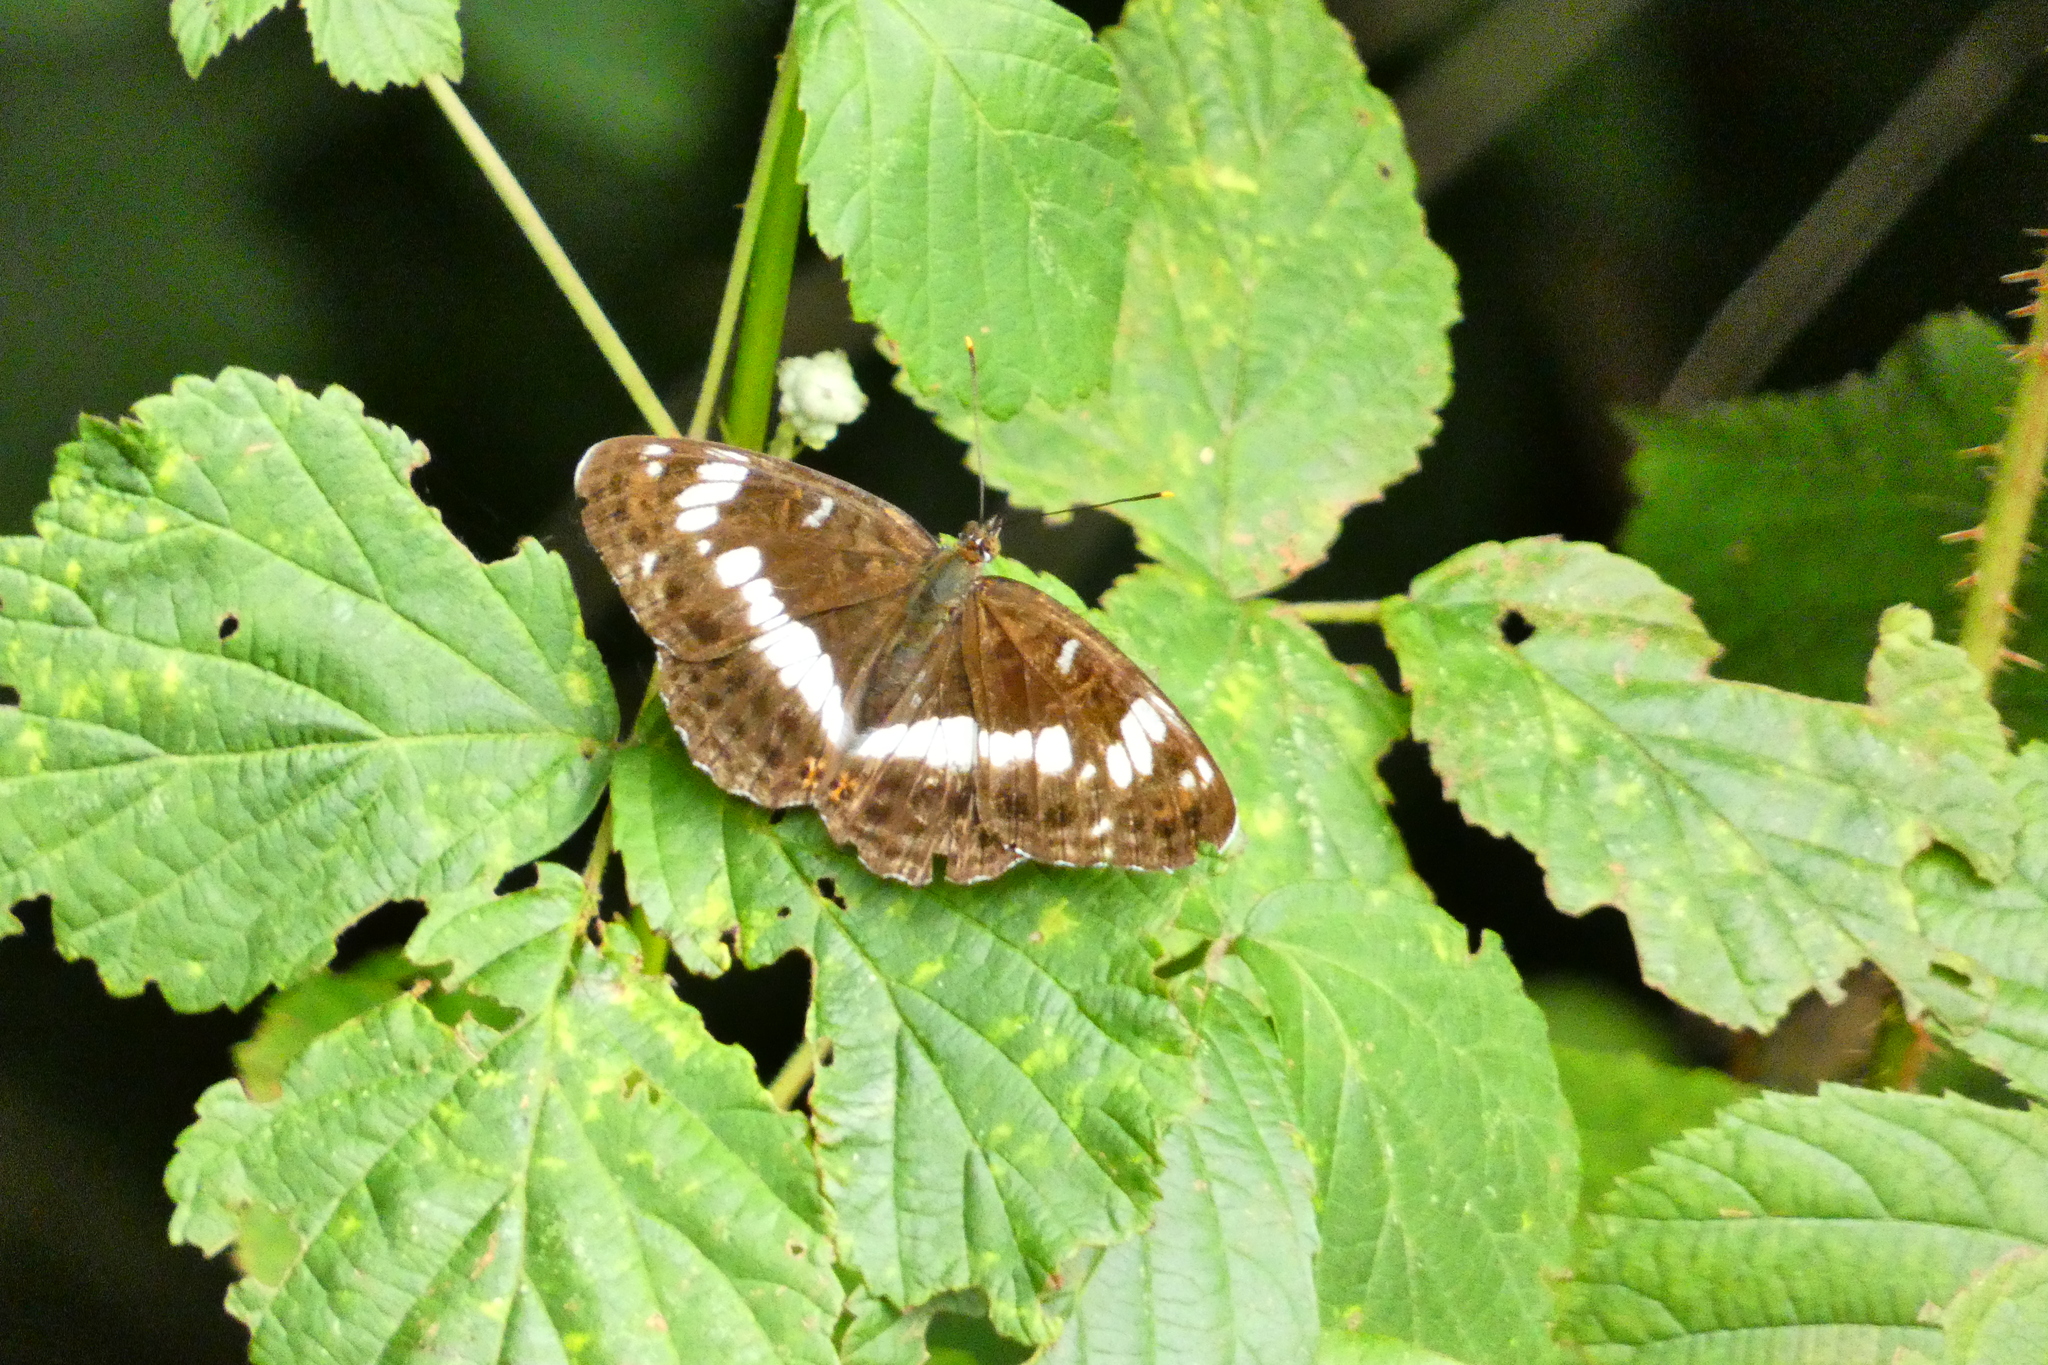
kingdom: Animalia
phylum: Arthropoda
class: Insecta
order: Lepidoptera
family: Nymphalidae
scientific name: Nymphalidae
